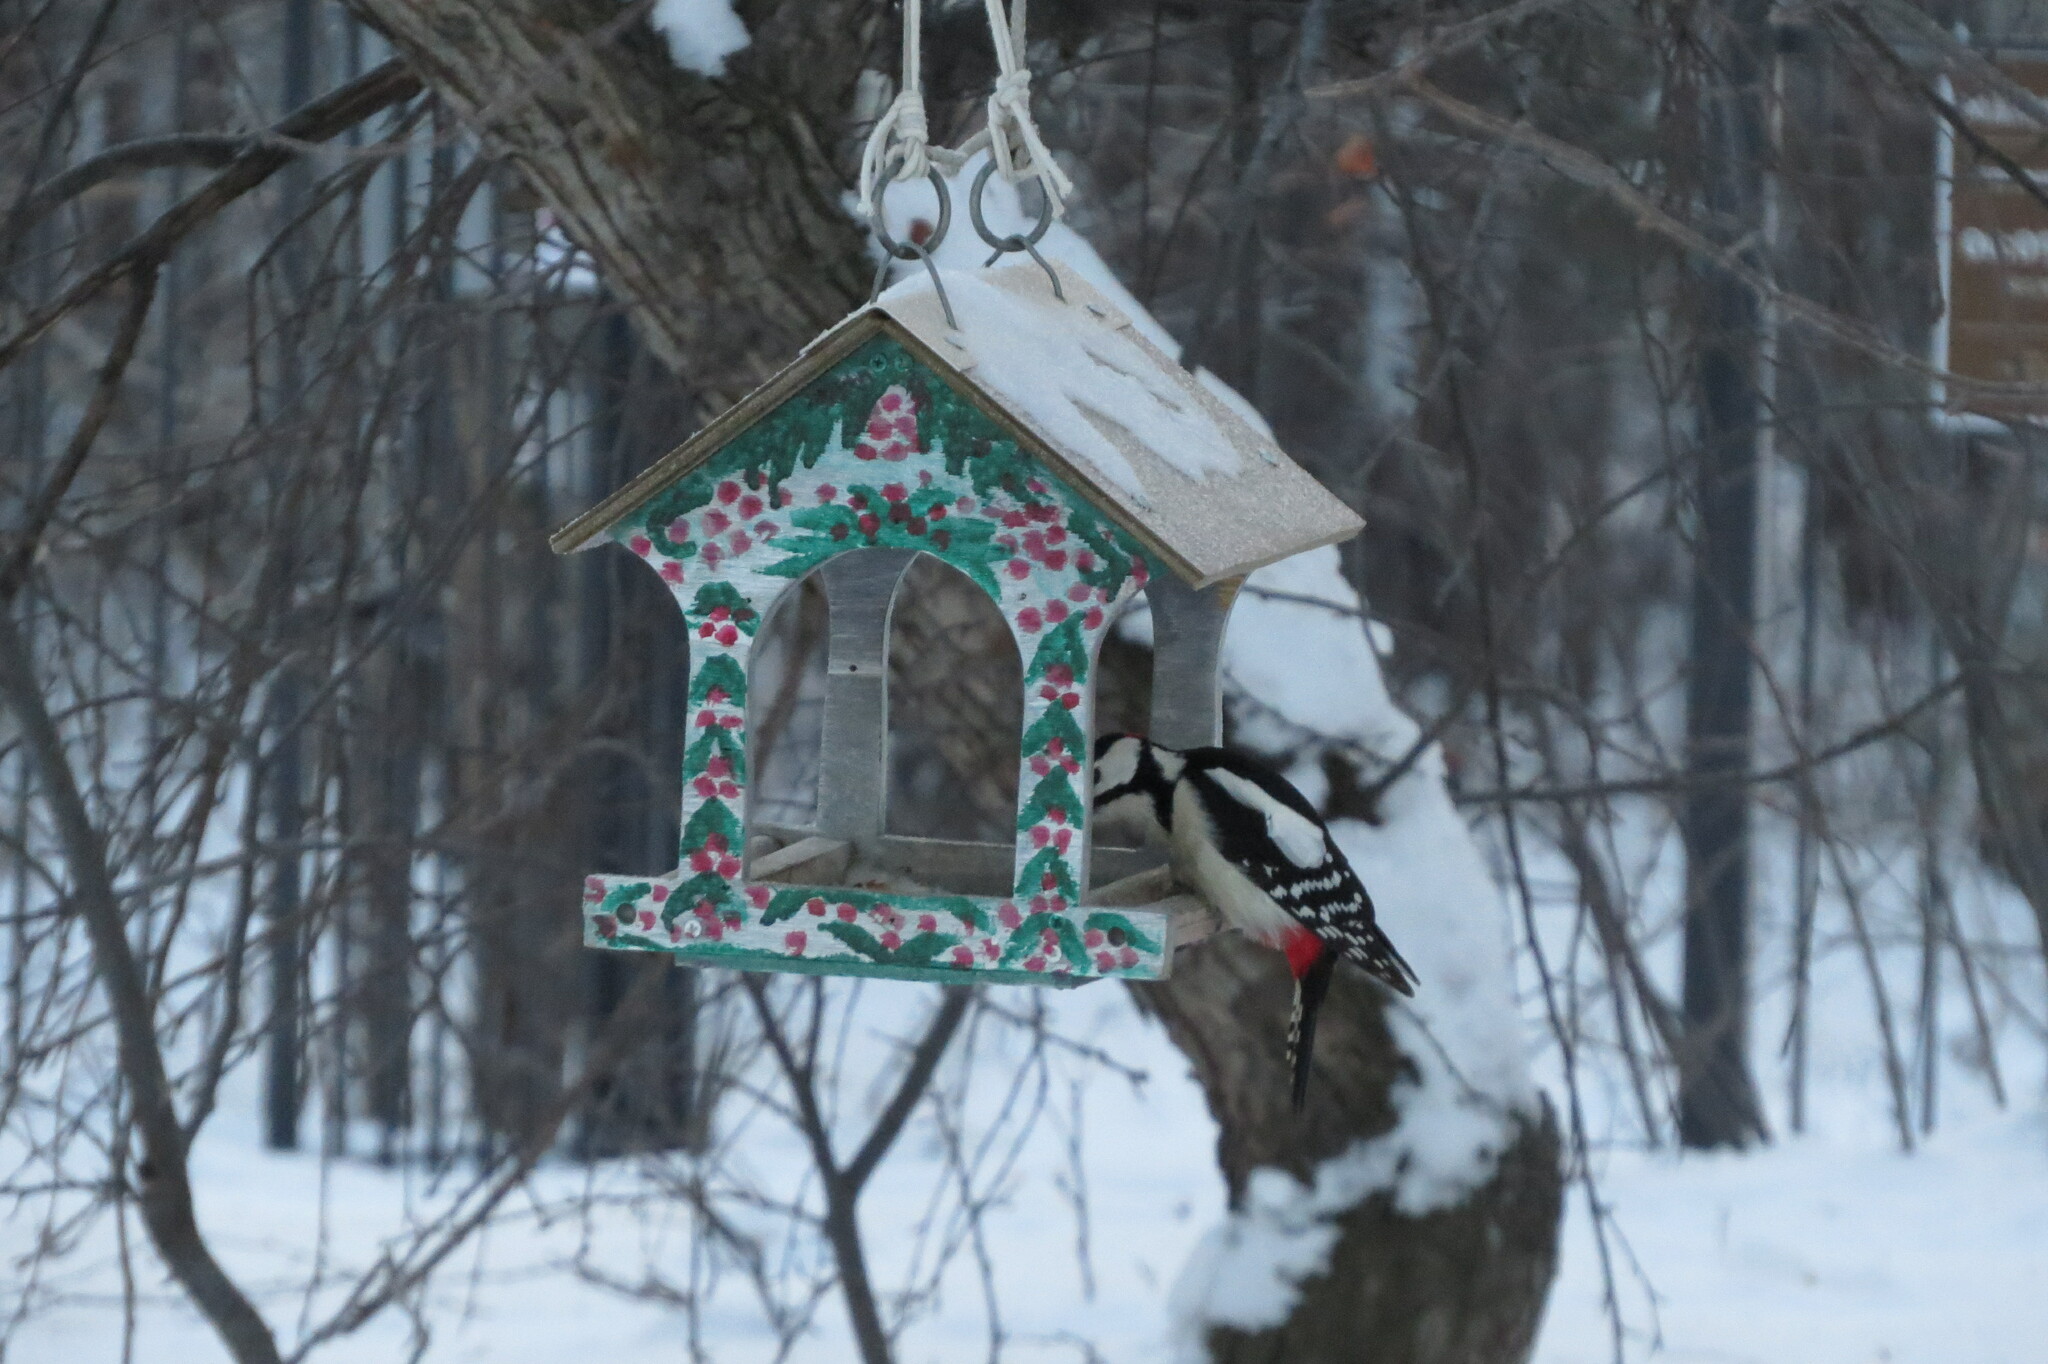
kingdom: Animalia
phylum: Chordata
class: Aves
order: Piciformes
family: Picidae
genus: Dendrocopos
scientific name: Dendrocopos major
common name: Great spotted woodpecker
